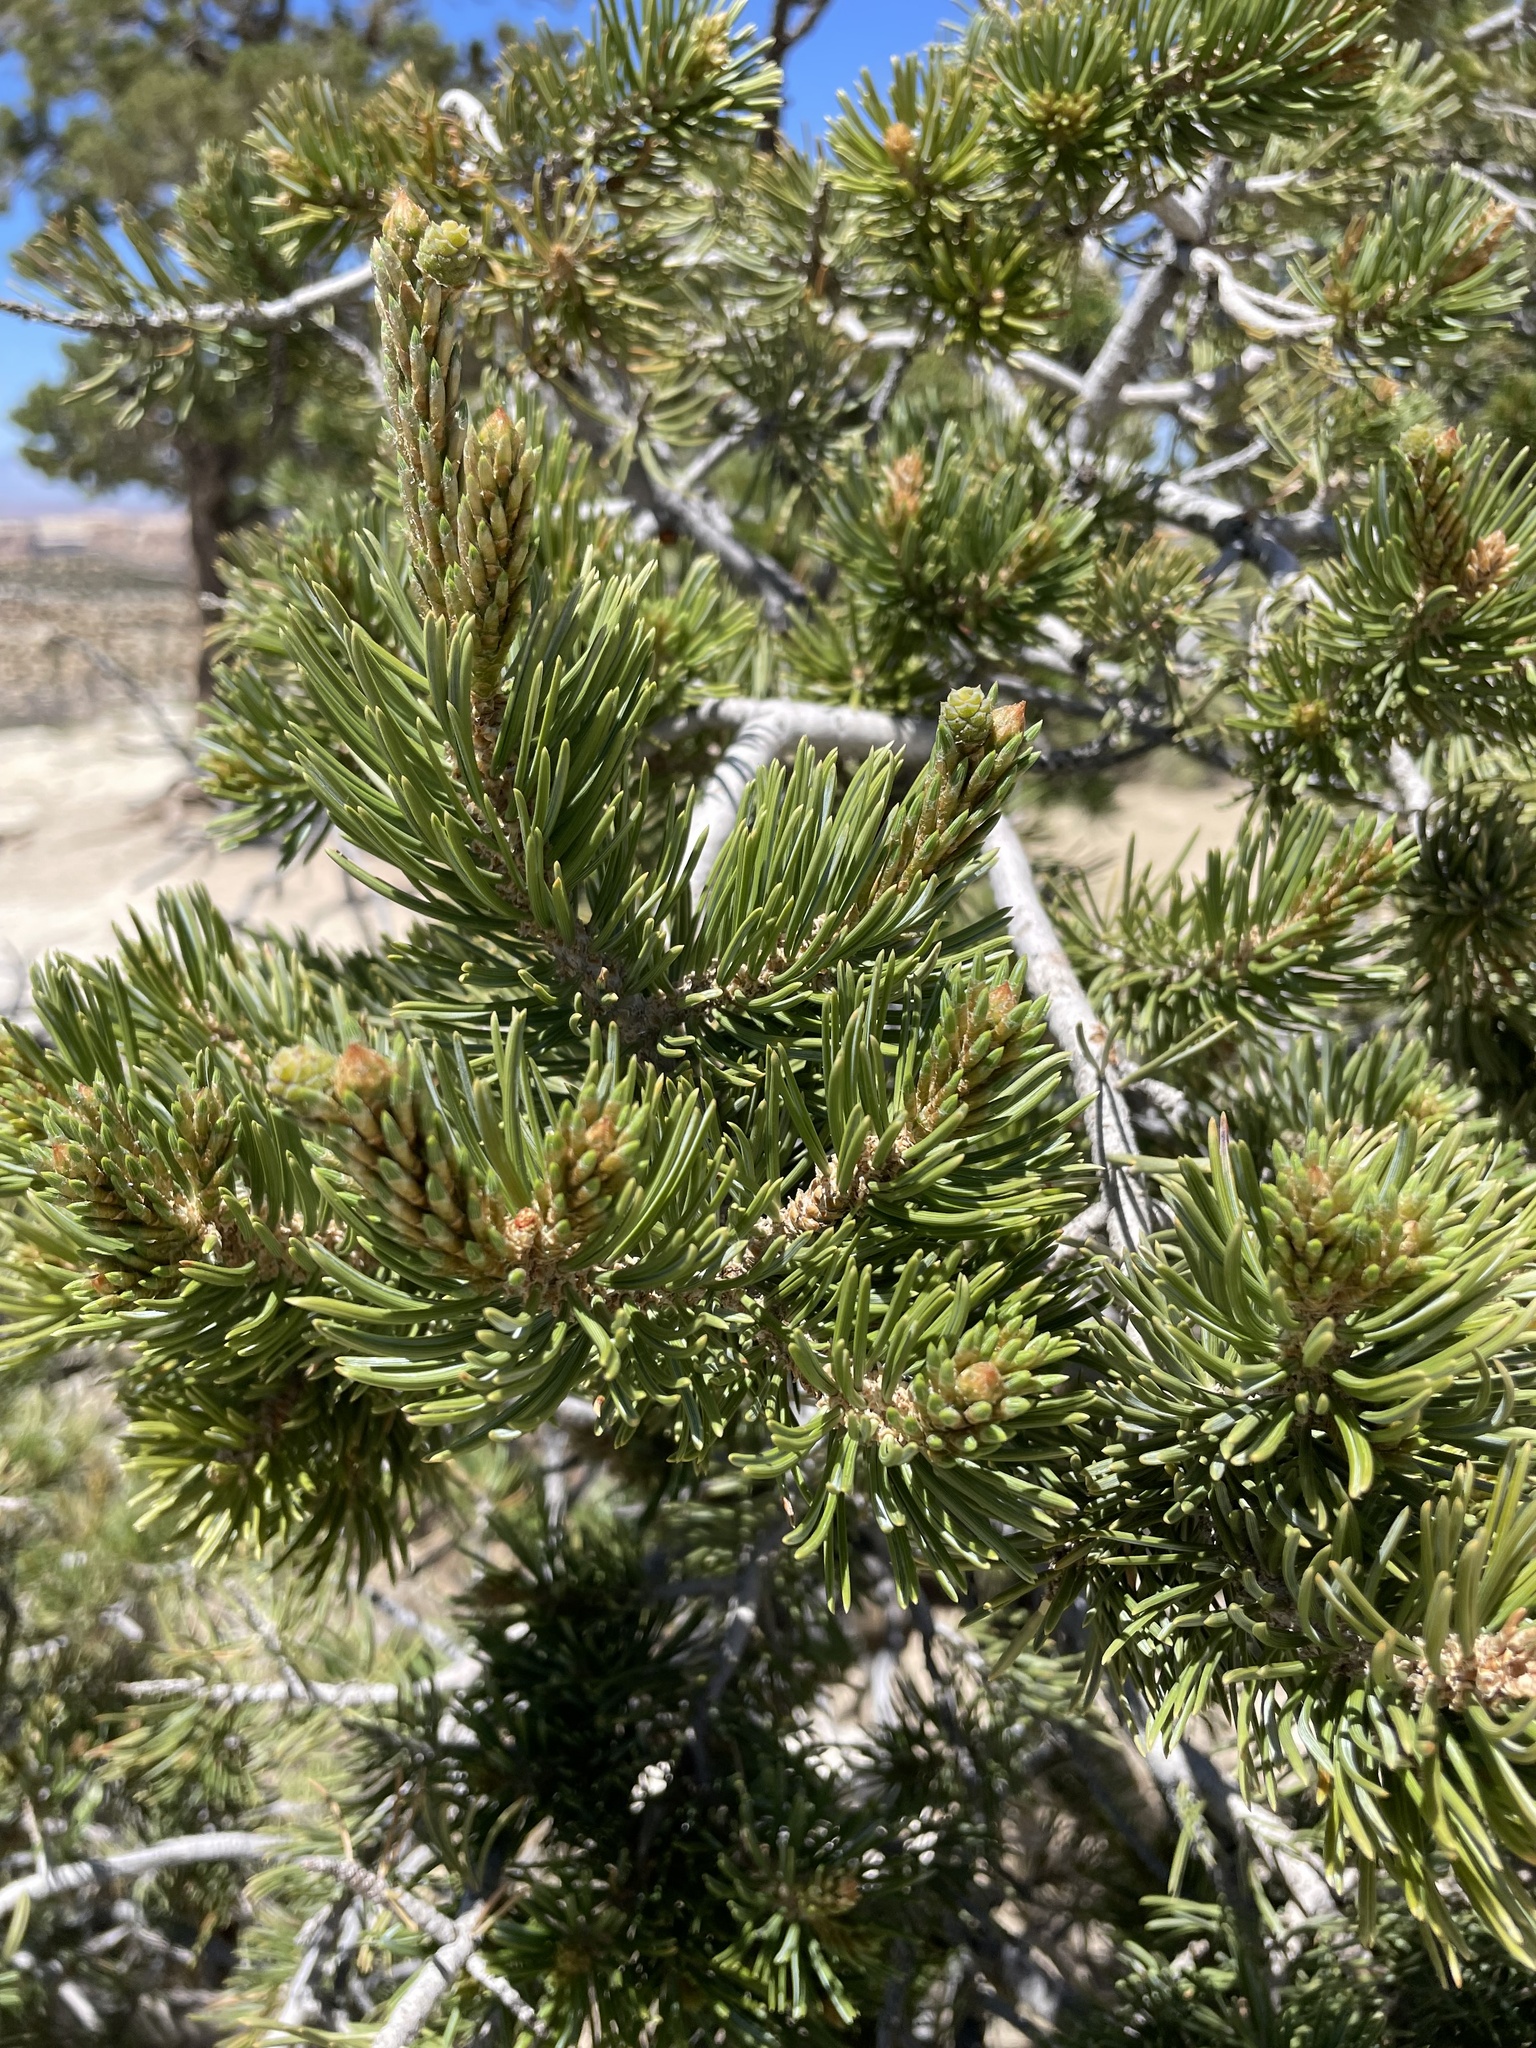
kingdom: Plantae
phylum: Tracheophyta
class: Pinopsida
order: Pinales
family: Pinaceae
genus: Pinus
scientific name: Pinus edulis
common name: Colorado pinyon
